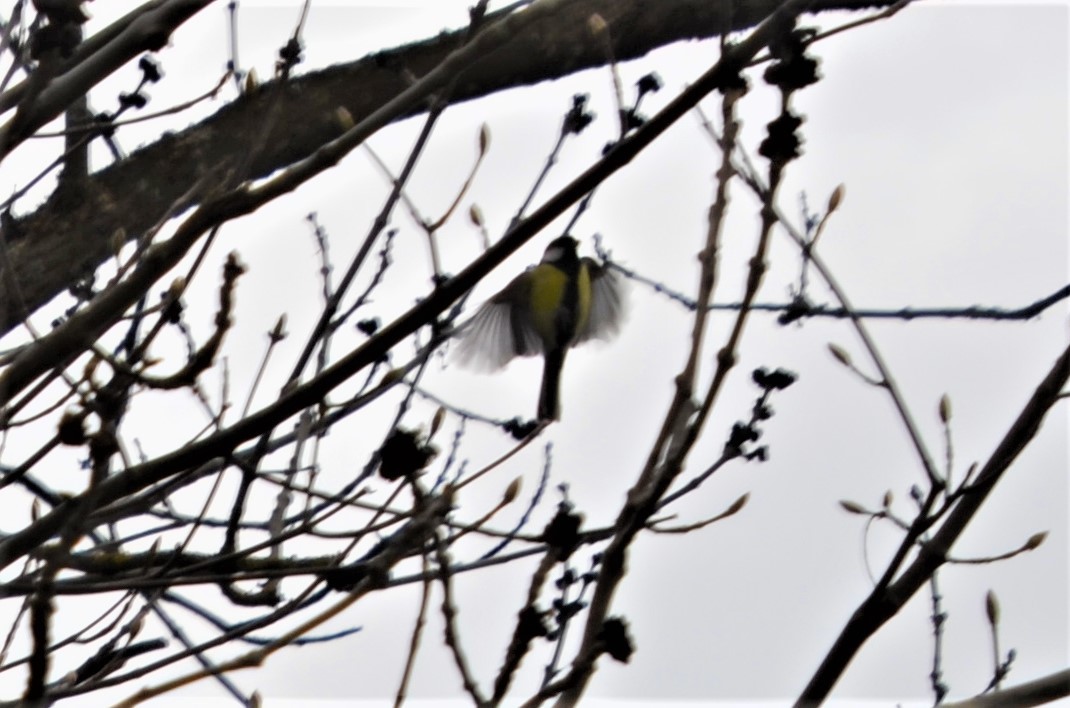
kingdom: Animalia
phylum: Chordata
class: Aves
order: Passeriformes
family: Paridae
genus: Parus
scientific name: Parus major
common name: Great tit
